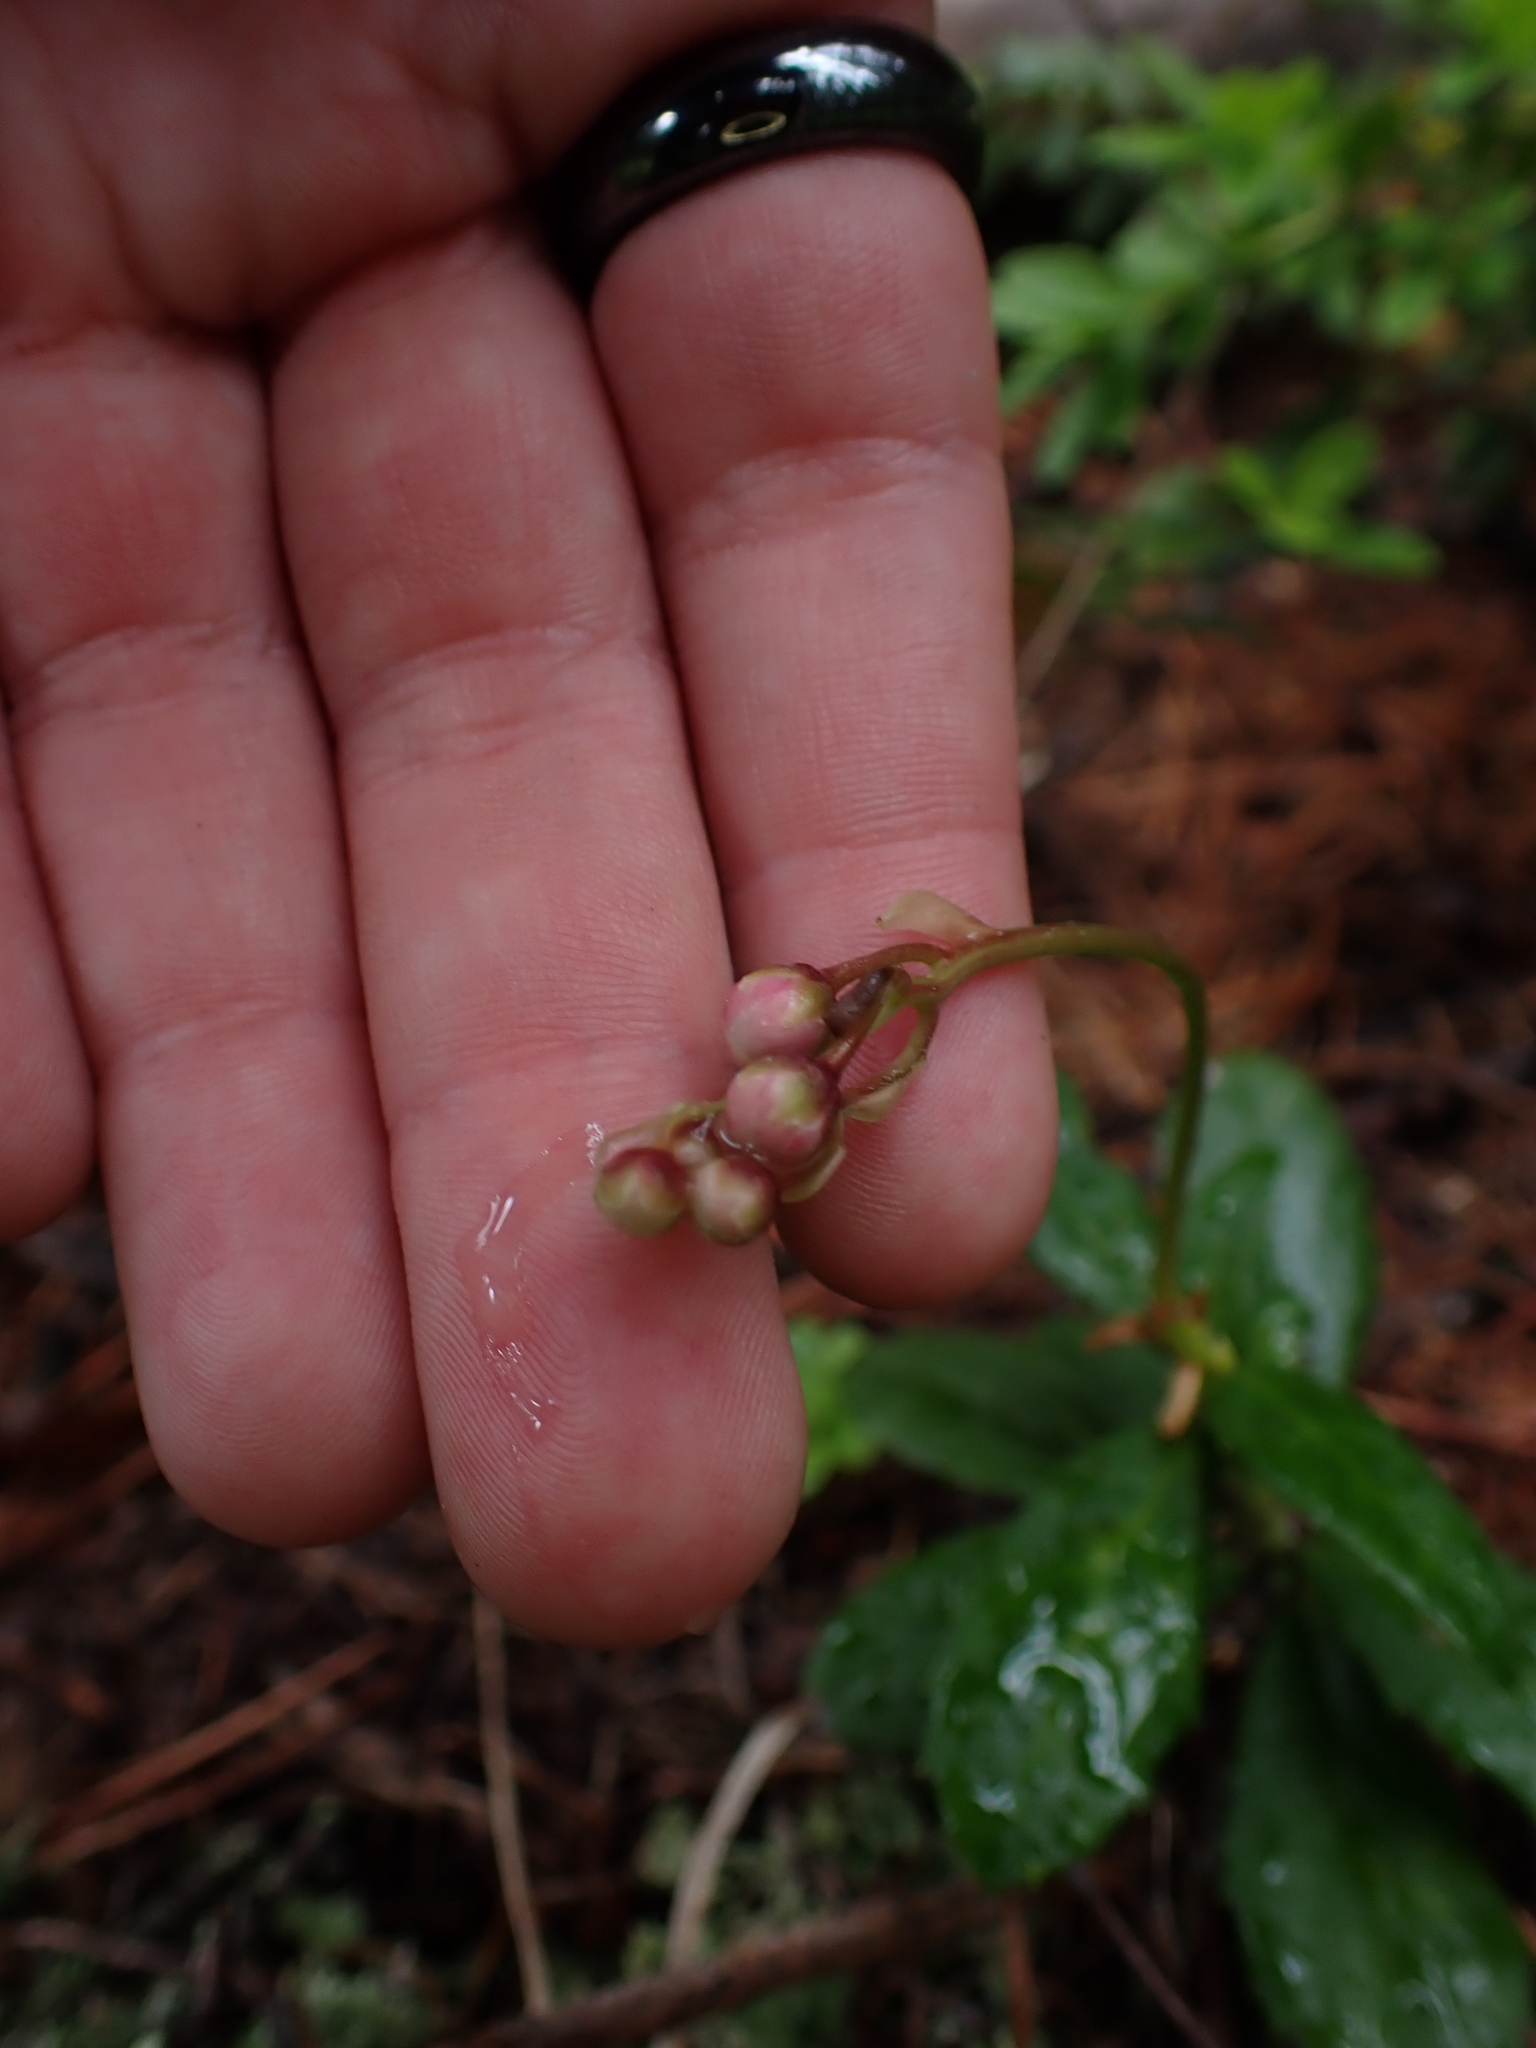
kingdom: Plantae
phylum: Tracheophyta
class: Magnoliopsida
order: Ericales
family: Ericaceae
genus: Chimaphila
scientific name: Chimaphila umbellata
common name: Pipsissewa
